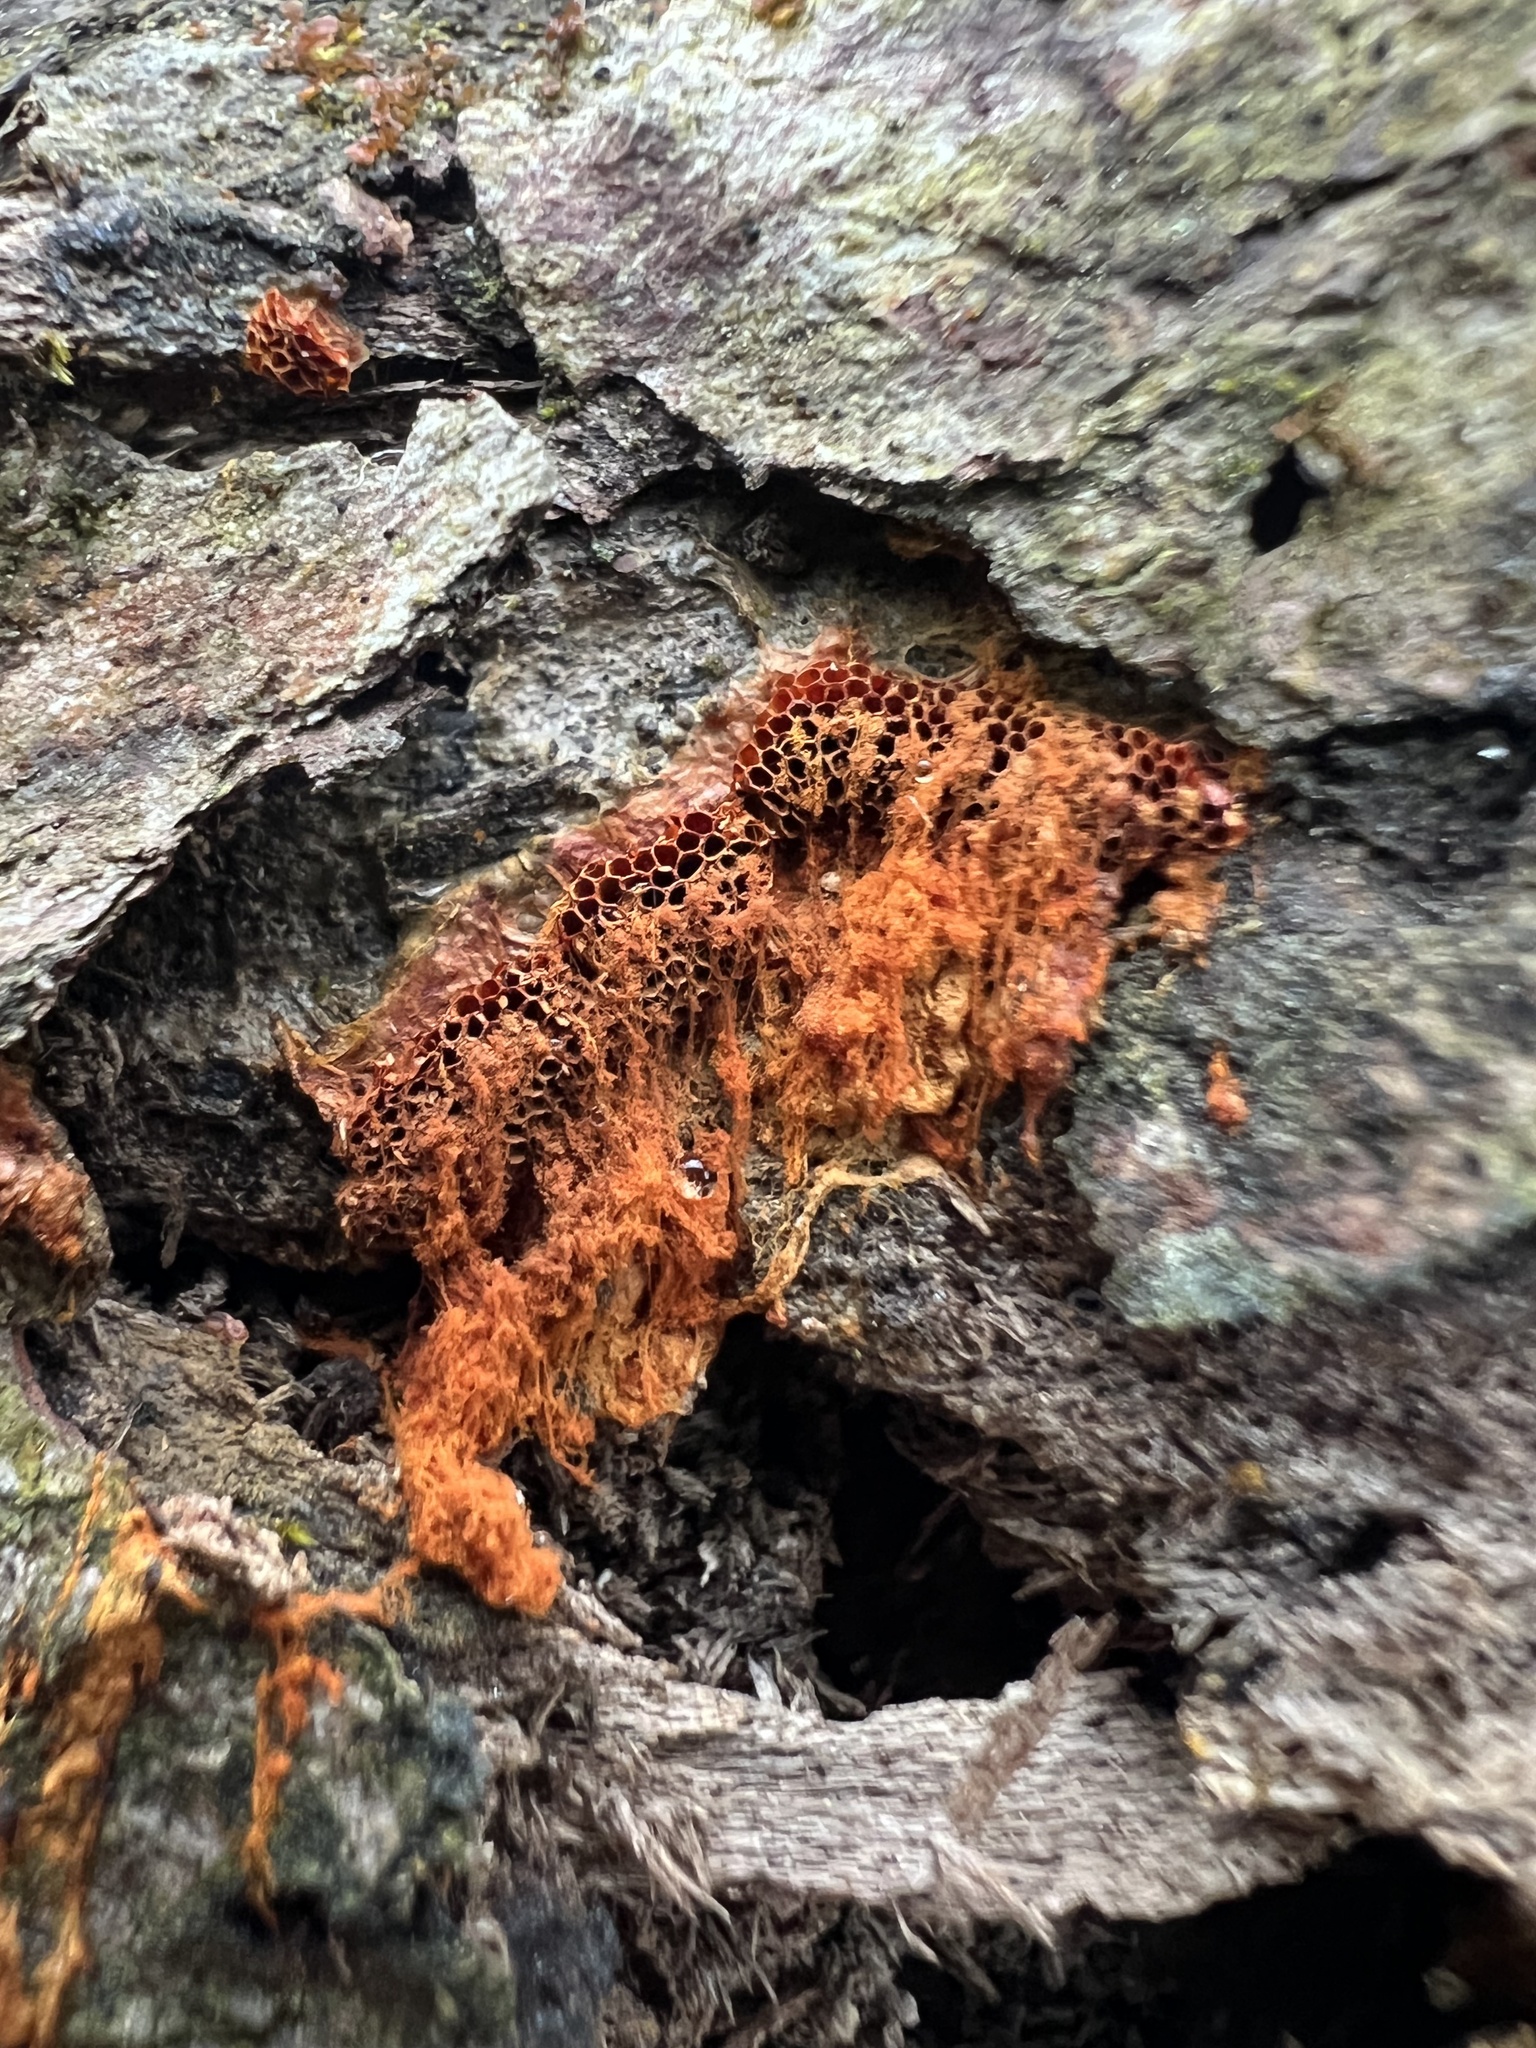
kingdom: Protozoa
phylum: Mycetozoa
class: Myxomycetes
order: Trichiales
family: Trichiaceae
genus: Metatrichia
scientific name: Metatrichia vesparia
